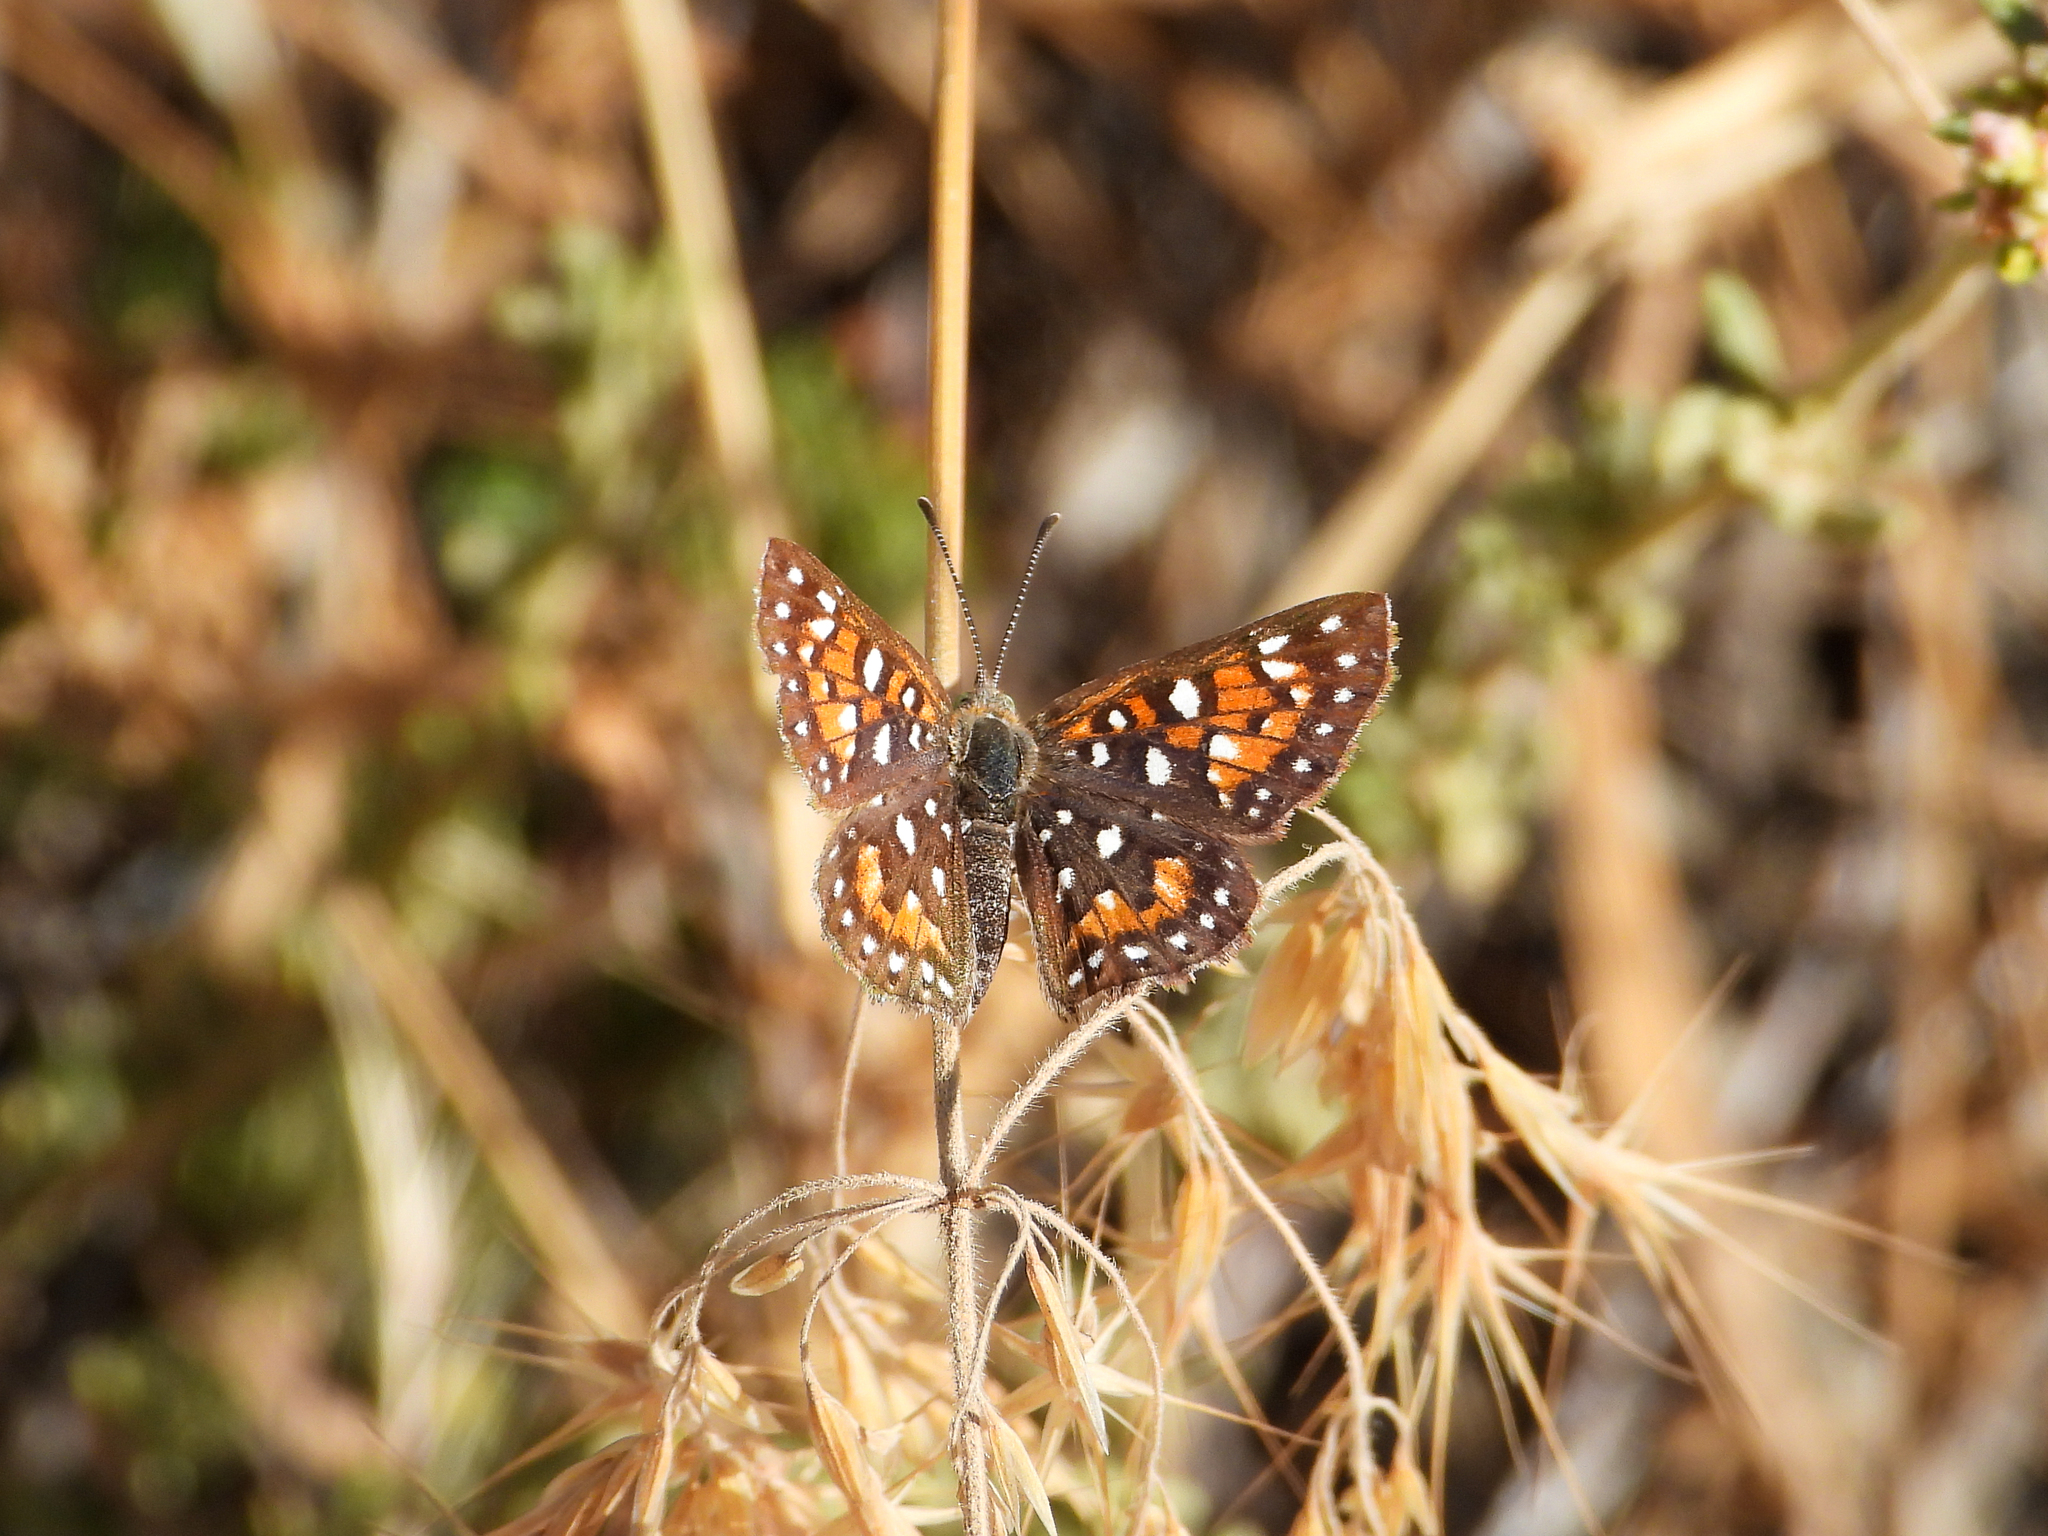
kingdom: Animalia
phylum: Arthropoda
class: Insecta
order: Lepidoptera
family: Riodinidae
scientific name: Riodinidae
